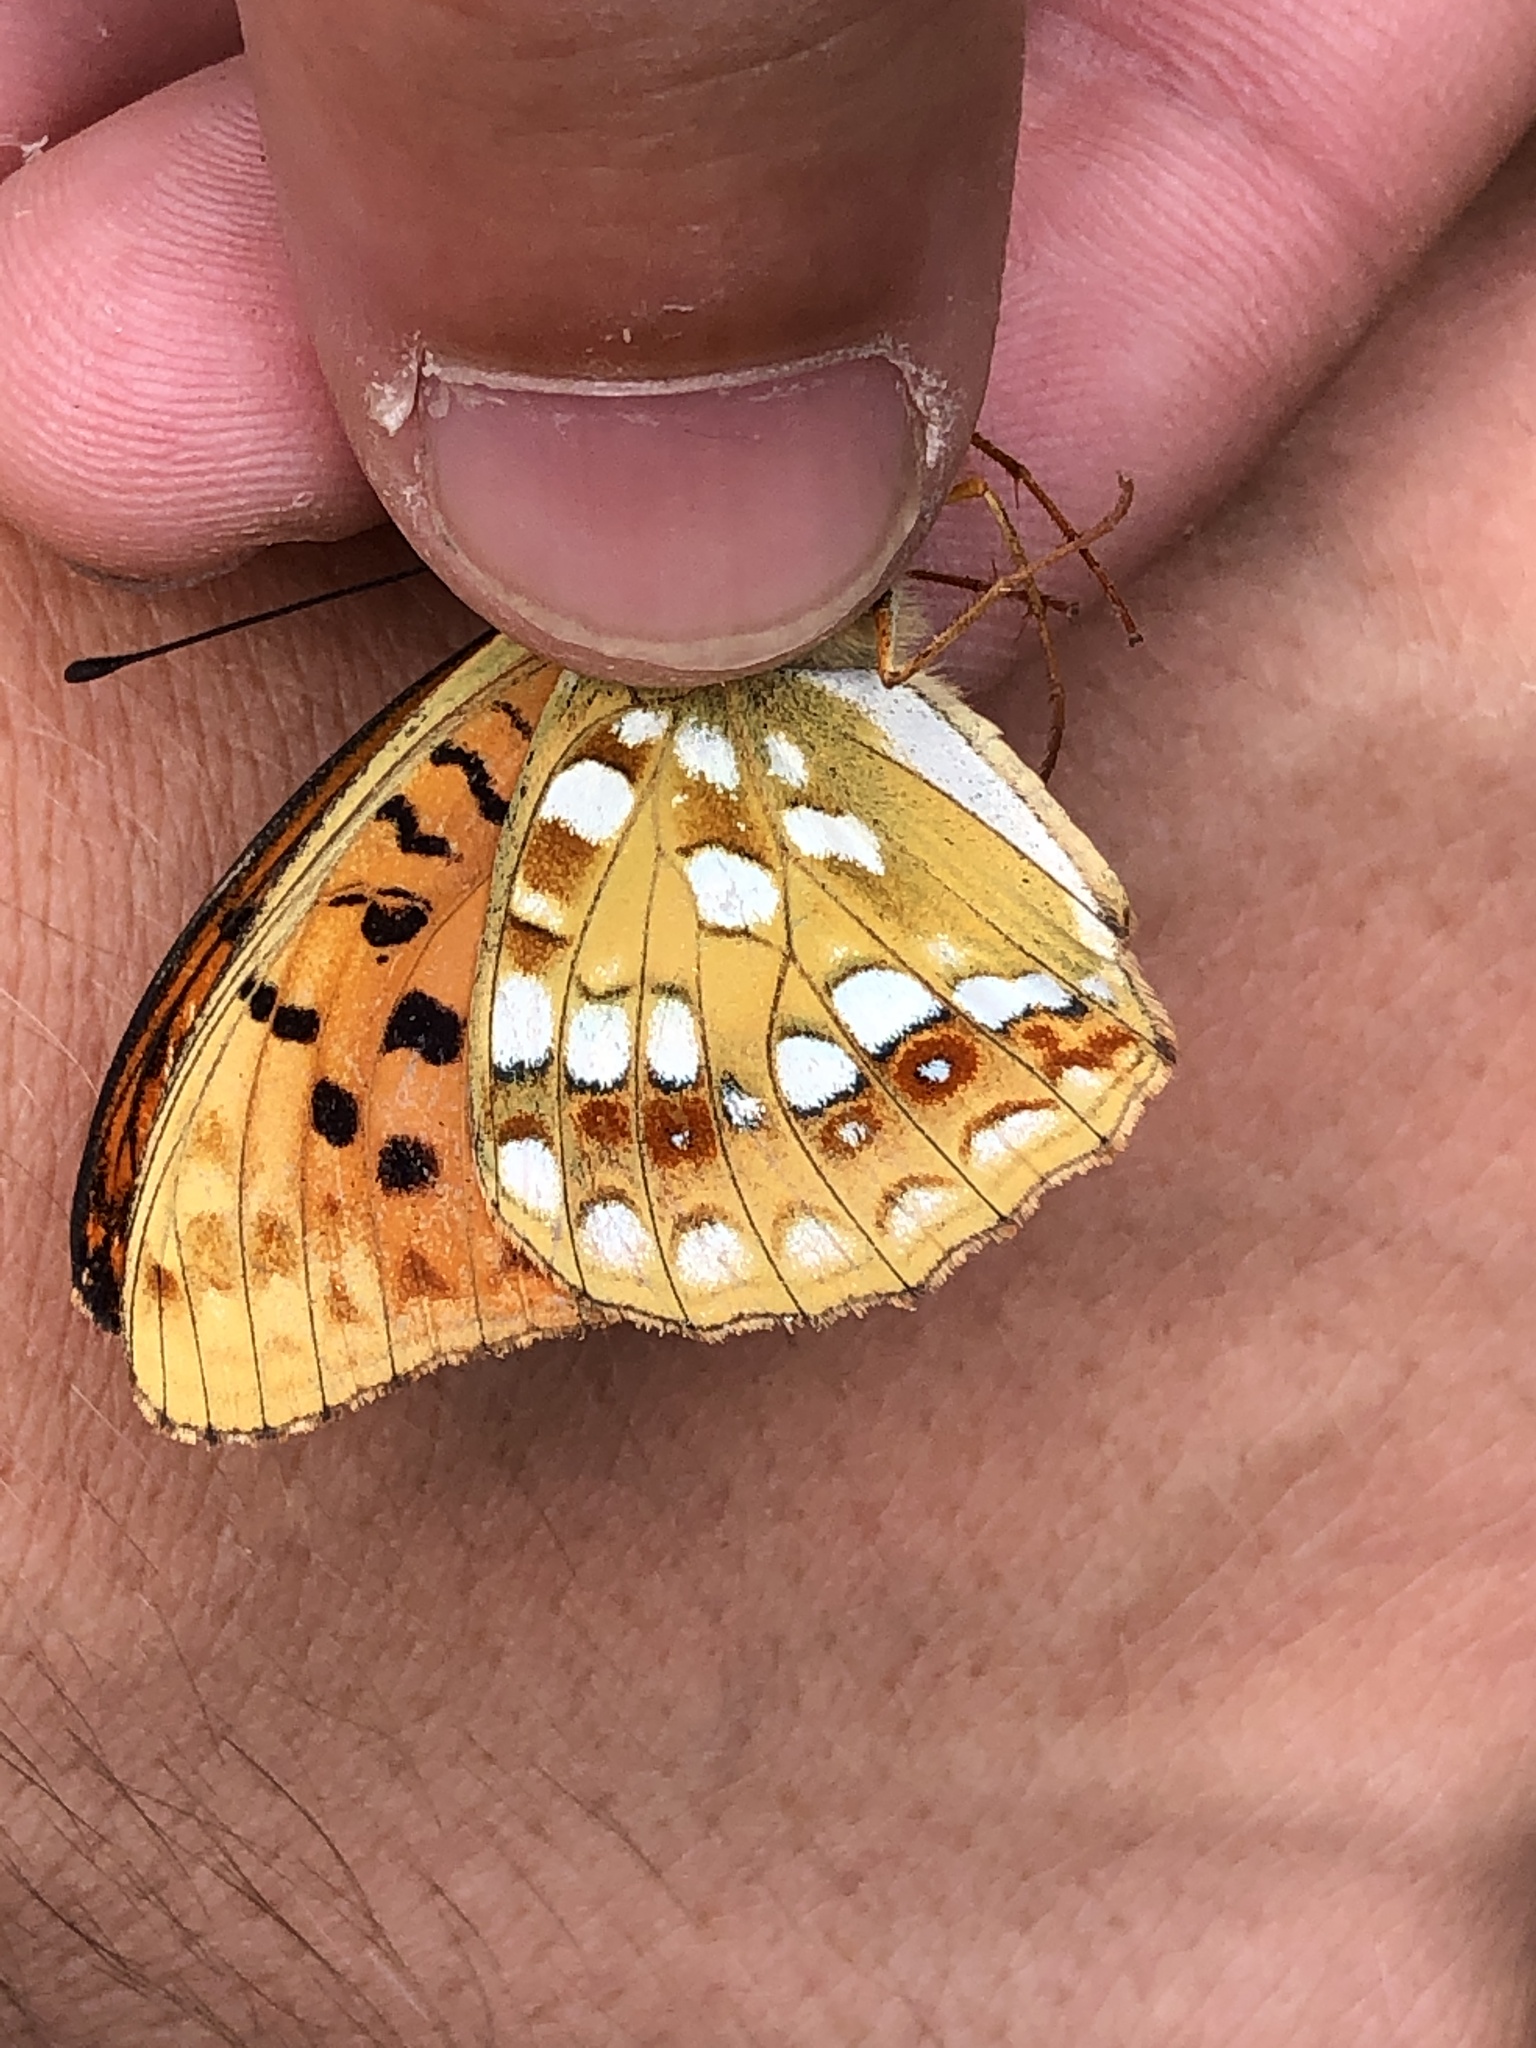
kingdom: Animalia
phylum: Arthropoda
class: Insecta
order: Lepidoptera
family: Nymphalidae
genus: Fabriciana
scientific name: Fabriciana adippe
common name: High brown fritillary
